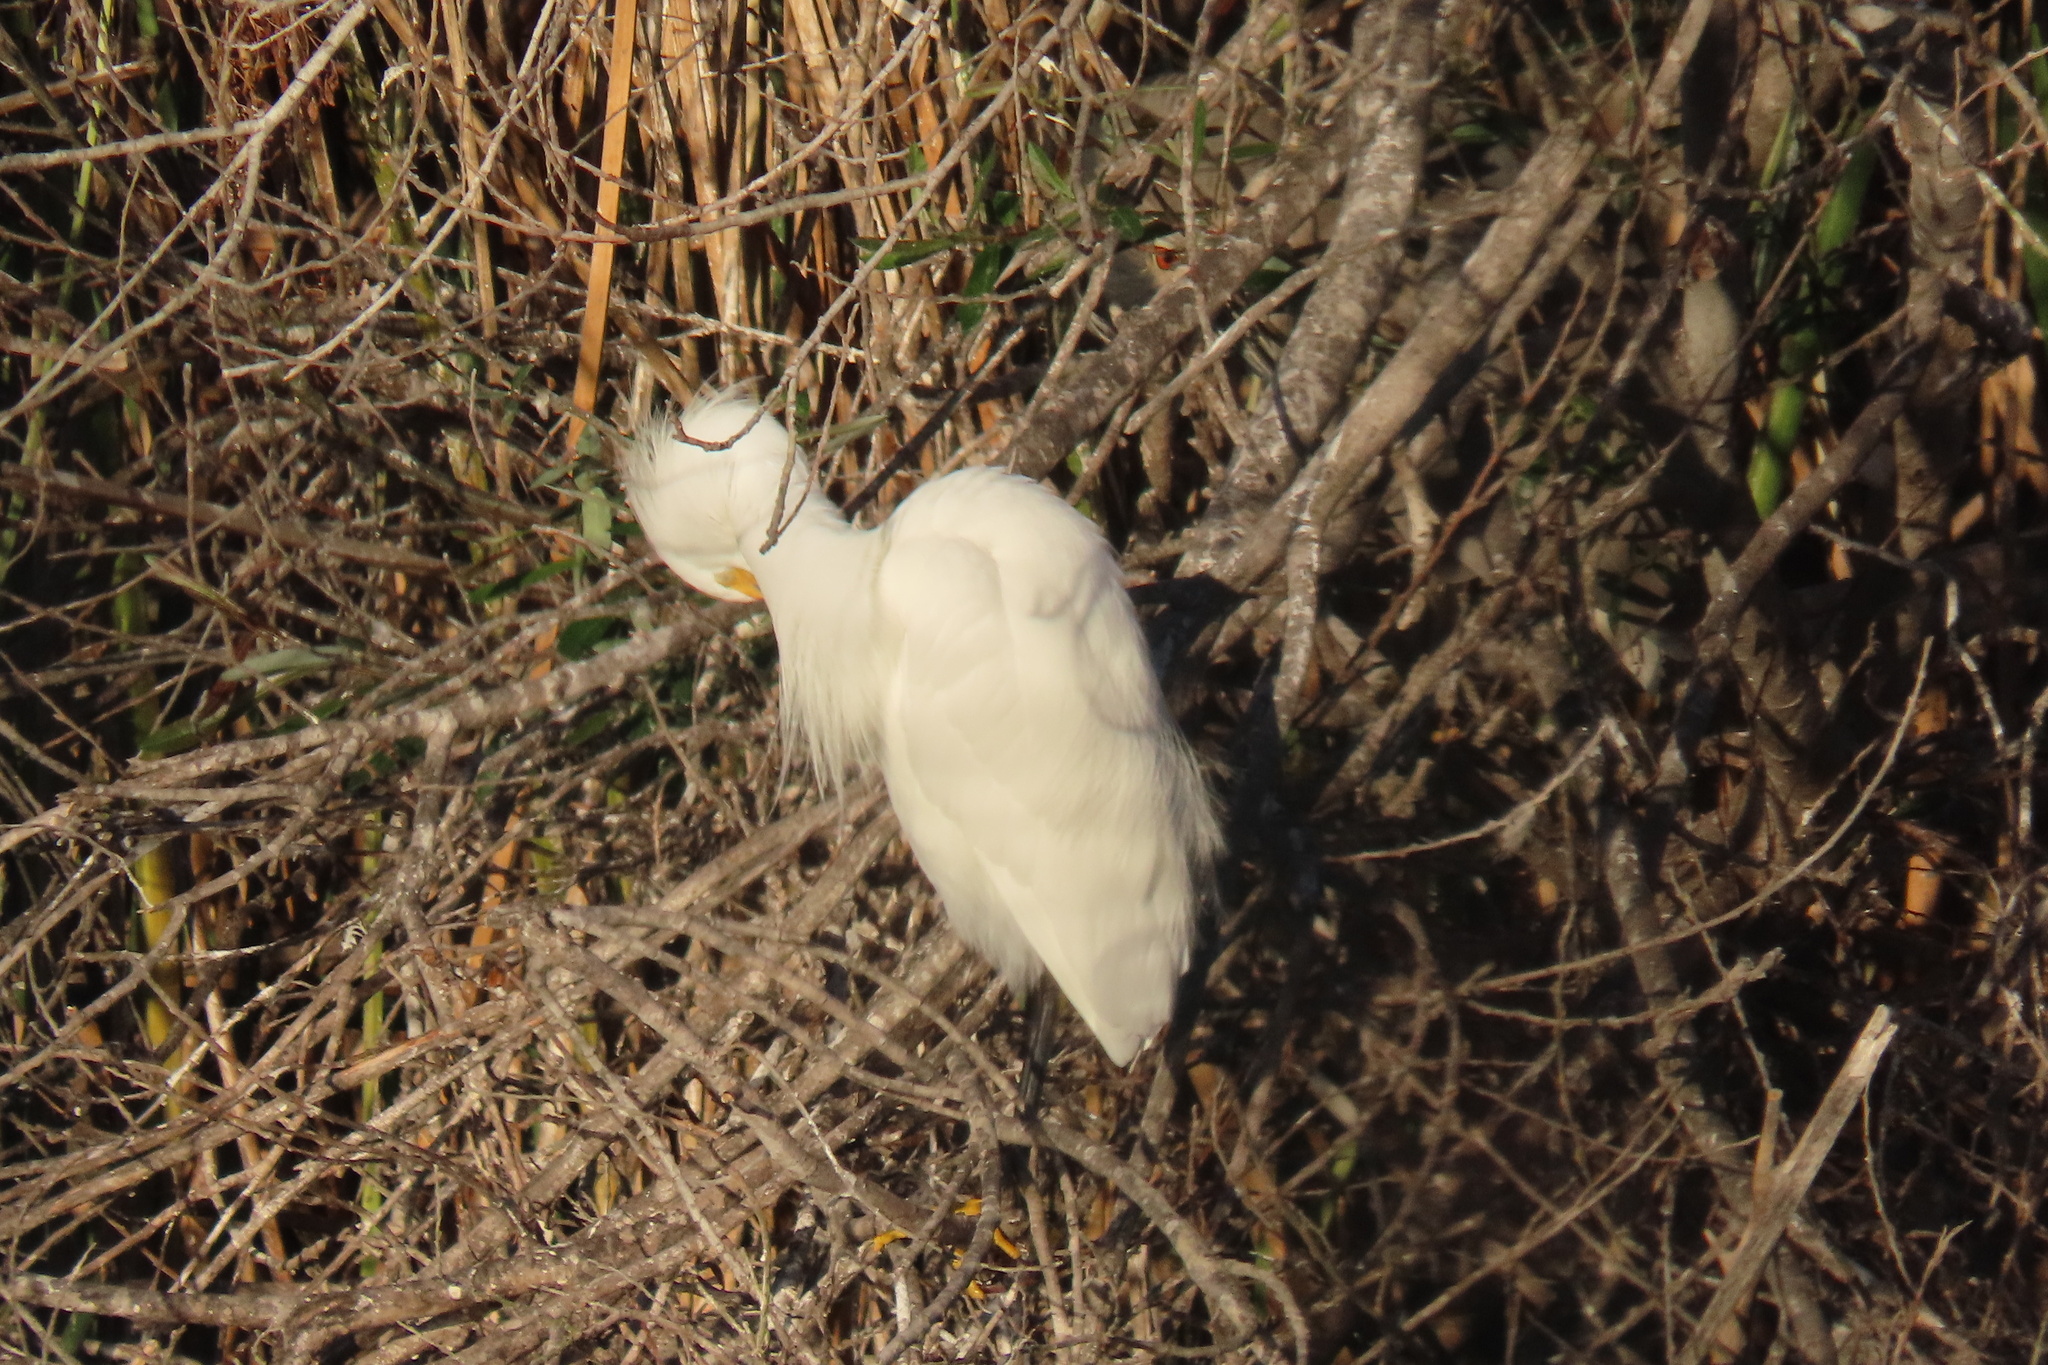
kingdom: Animalia
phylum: Chordata
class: Aves
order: Pelecaniformes
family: Ardeidae
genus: Egretta
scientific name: Egretta thula
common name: Snowy egret
